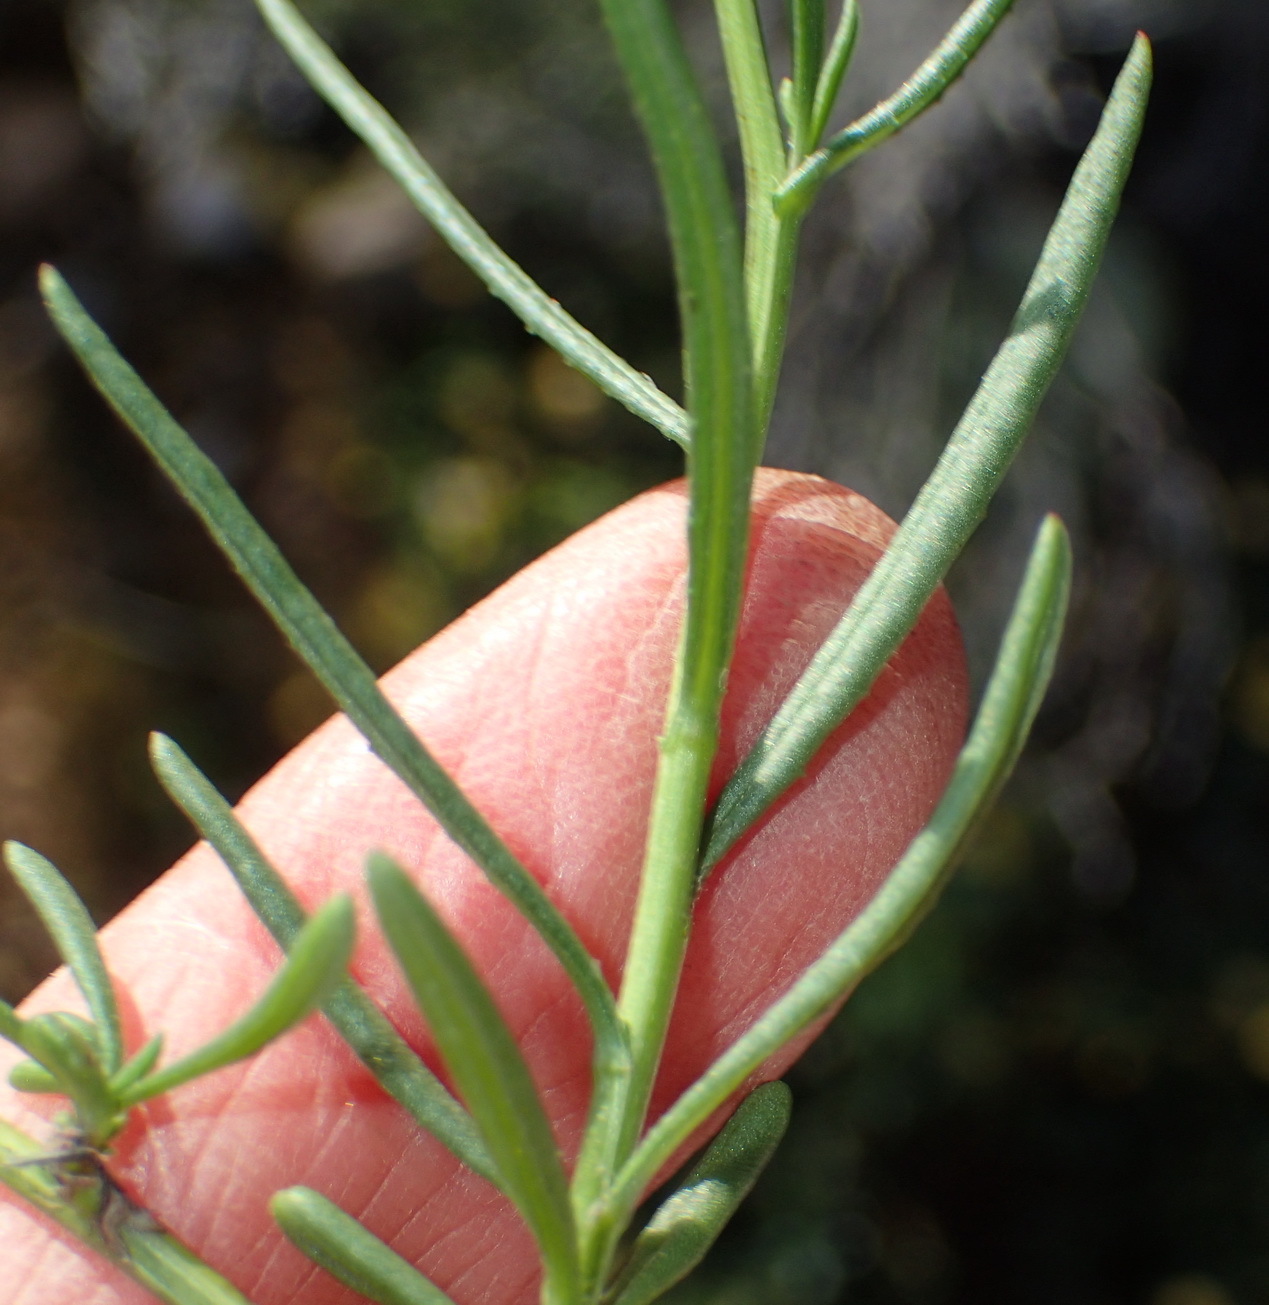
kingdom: Plantae
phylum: Tracheophyta
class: Magnoliopsida
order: Asterales
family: Asteraceae
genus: Senecio
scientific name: Senecio burchellii
